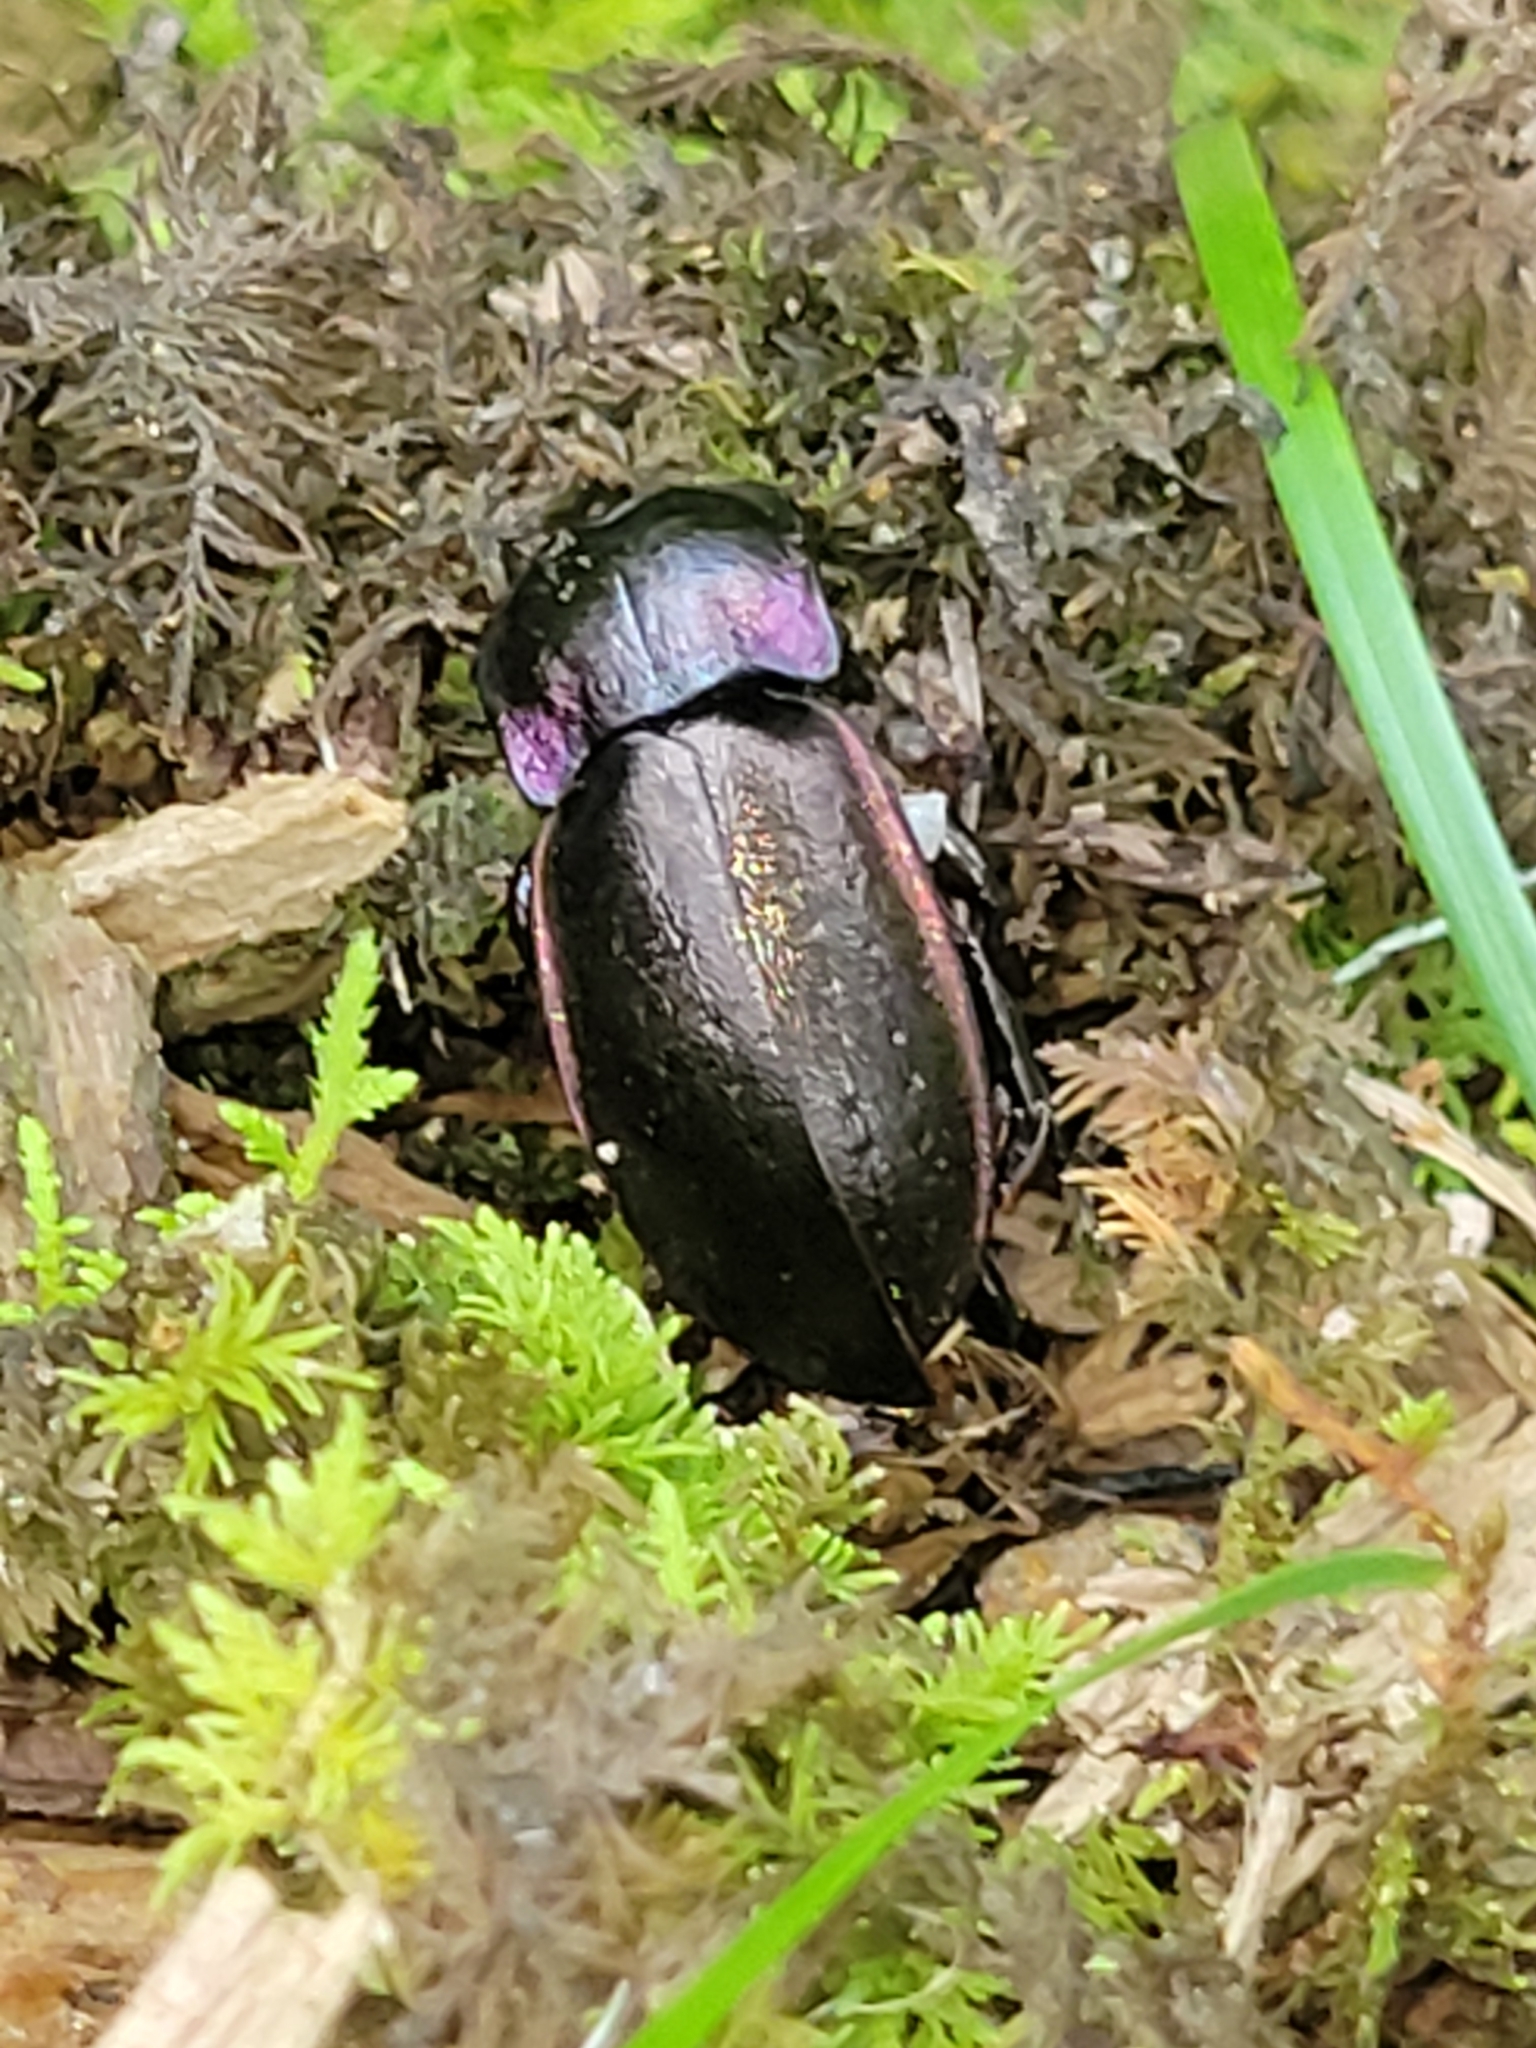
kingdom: Animalia
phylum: Arthropoda
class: Insecta
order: Coleoptera
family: Carabidae
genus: Carabus
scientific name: Carabus nemoralis
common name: European ground beetle
